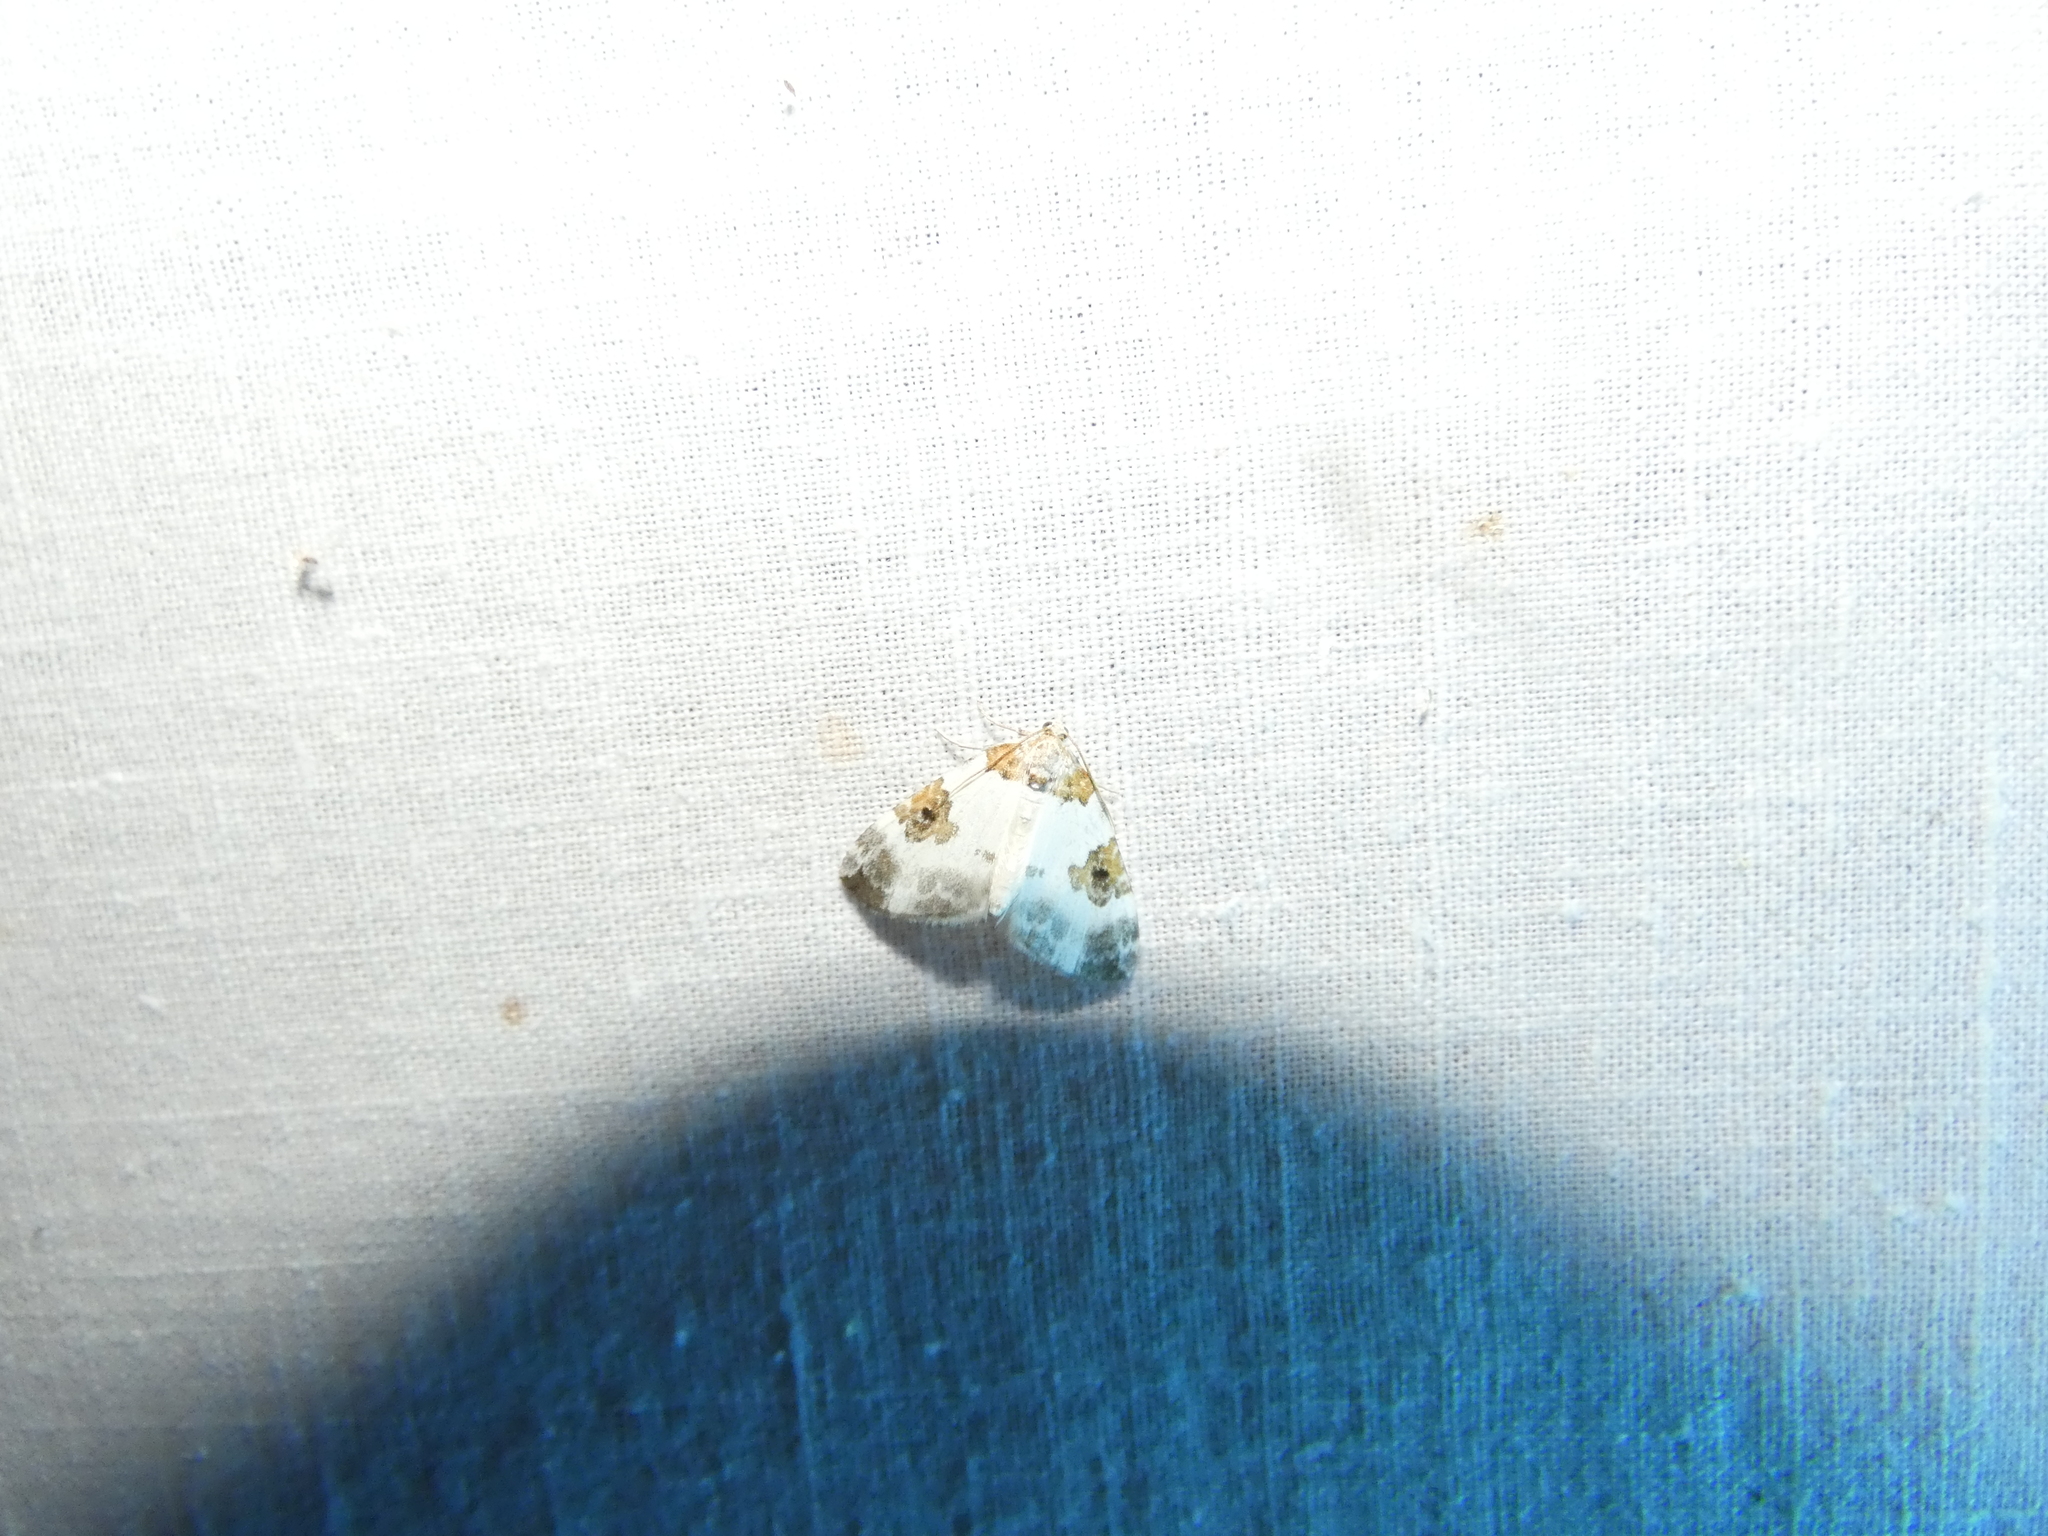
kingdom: Animalia
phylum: Arthropoda
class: Insecta
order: Lepidoptera
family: Geometridae
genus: Plemyria
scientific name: Plemyria rubiginata
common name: Blue-bordered carpet
